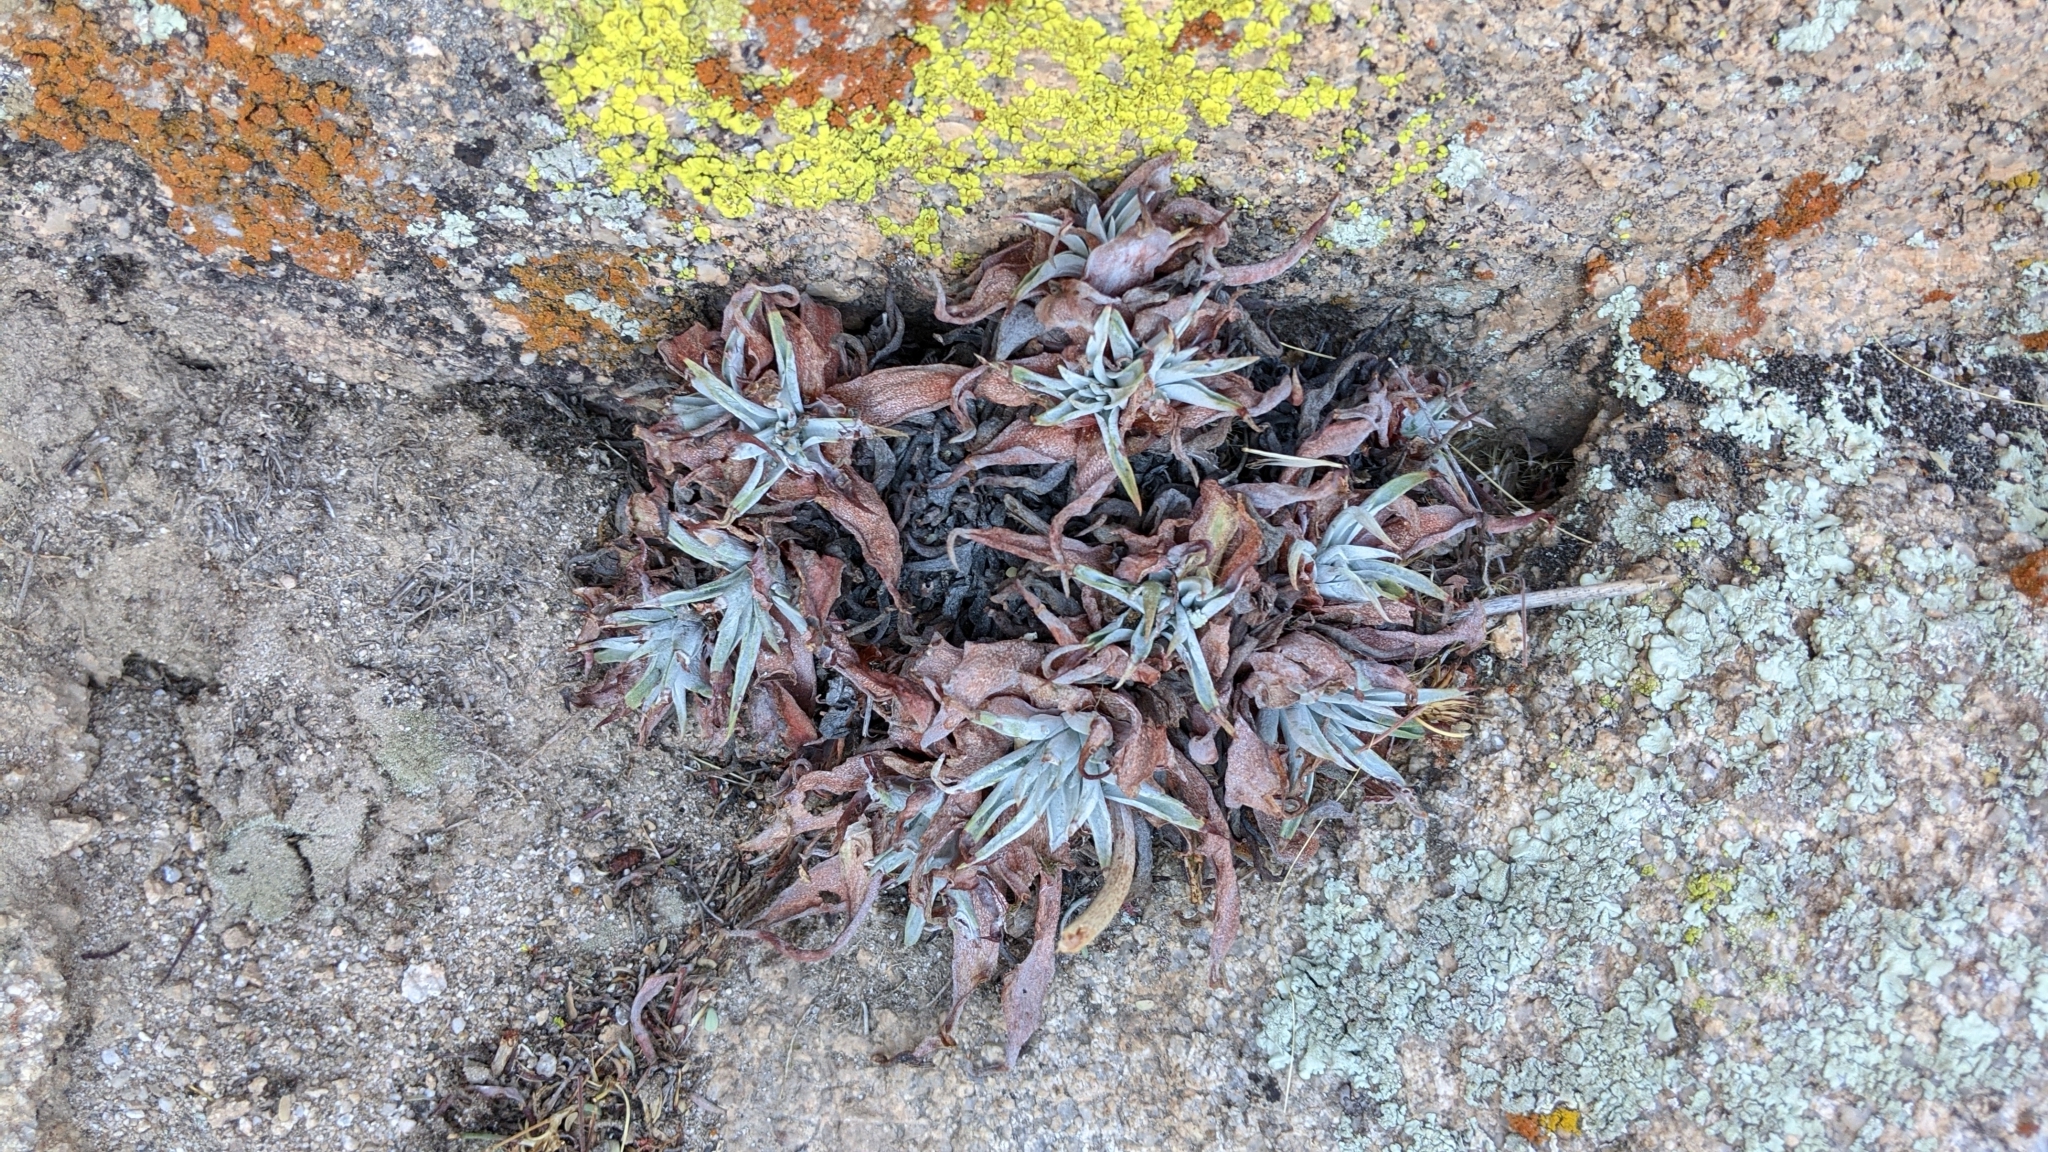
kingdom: Plantae
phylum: Tracheophyta
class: Magnoliopsida
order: Saxifragales
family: Crassulaceae
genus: Dudleya
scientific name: Dudleya saxosa
